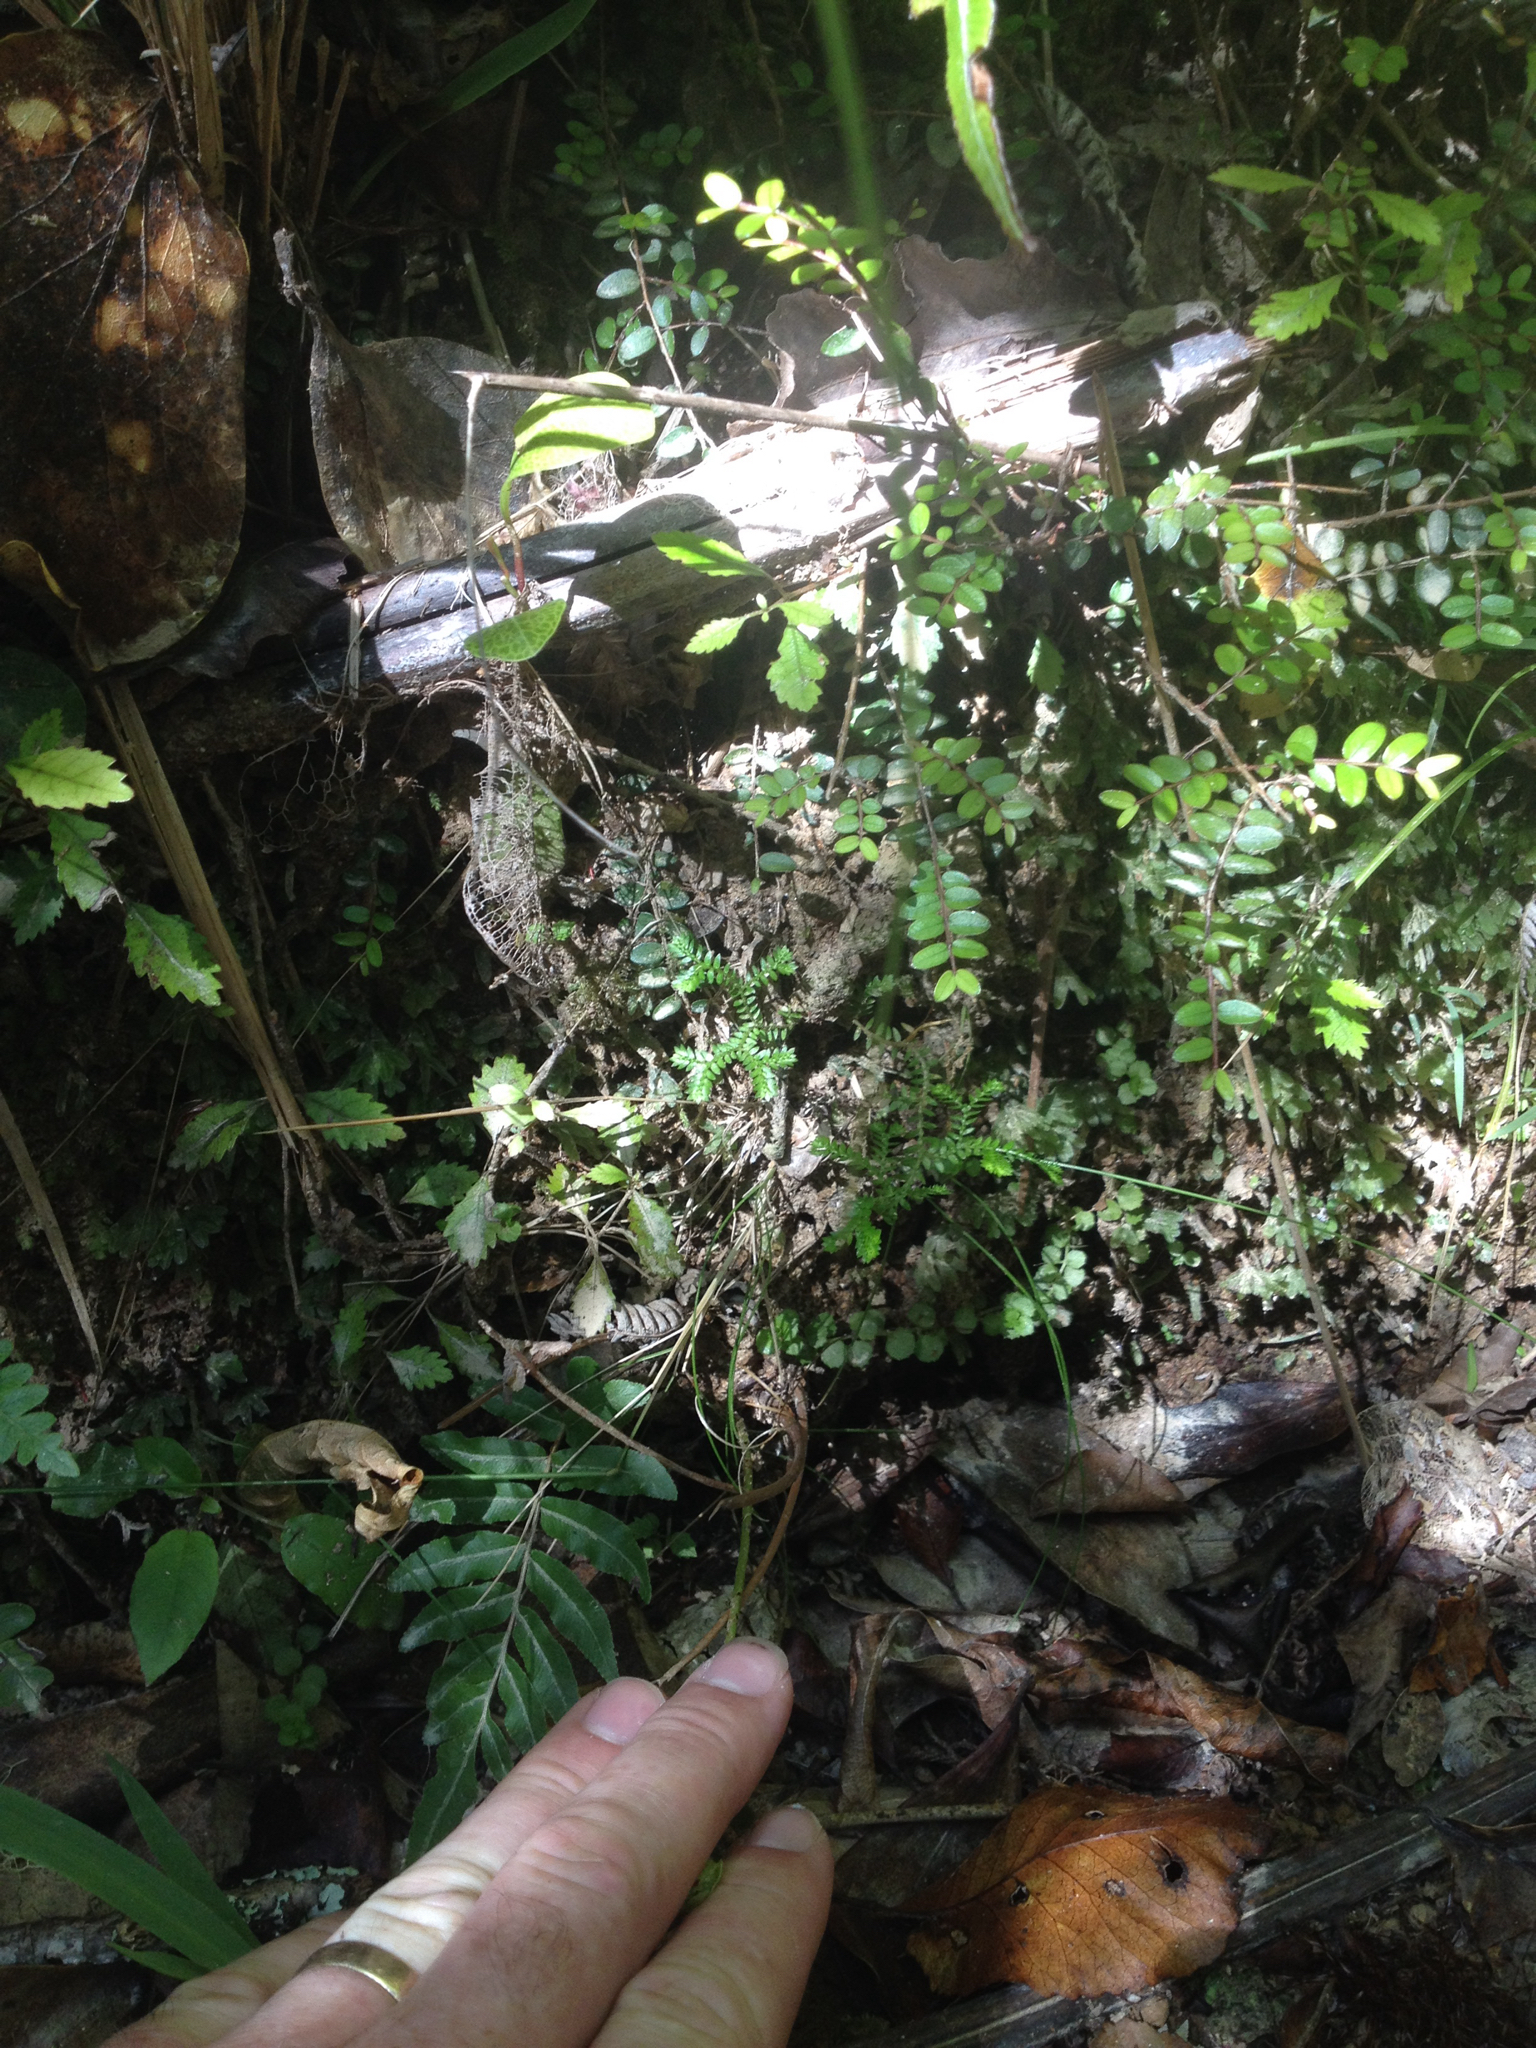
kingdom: Plantae
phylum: Tracheophyta
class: Lycopodiopsida
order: Selaginellales
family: Selaginellaceae
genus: Selaginella
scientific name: Selaginella kraussiana
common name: Krauss' spikemoss
